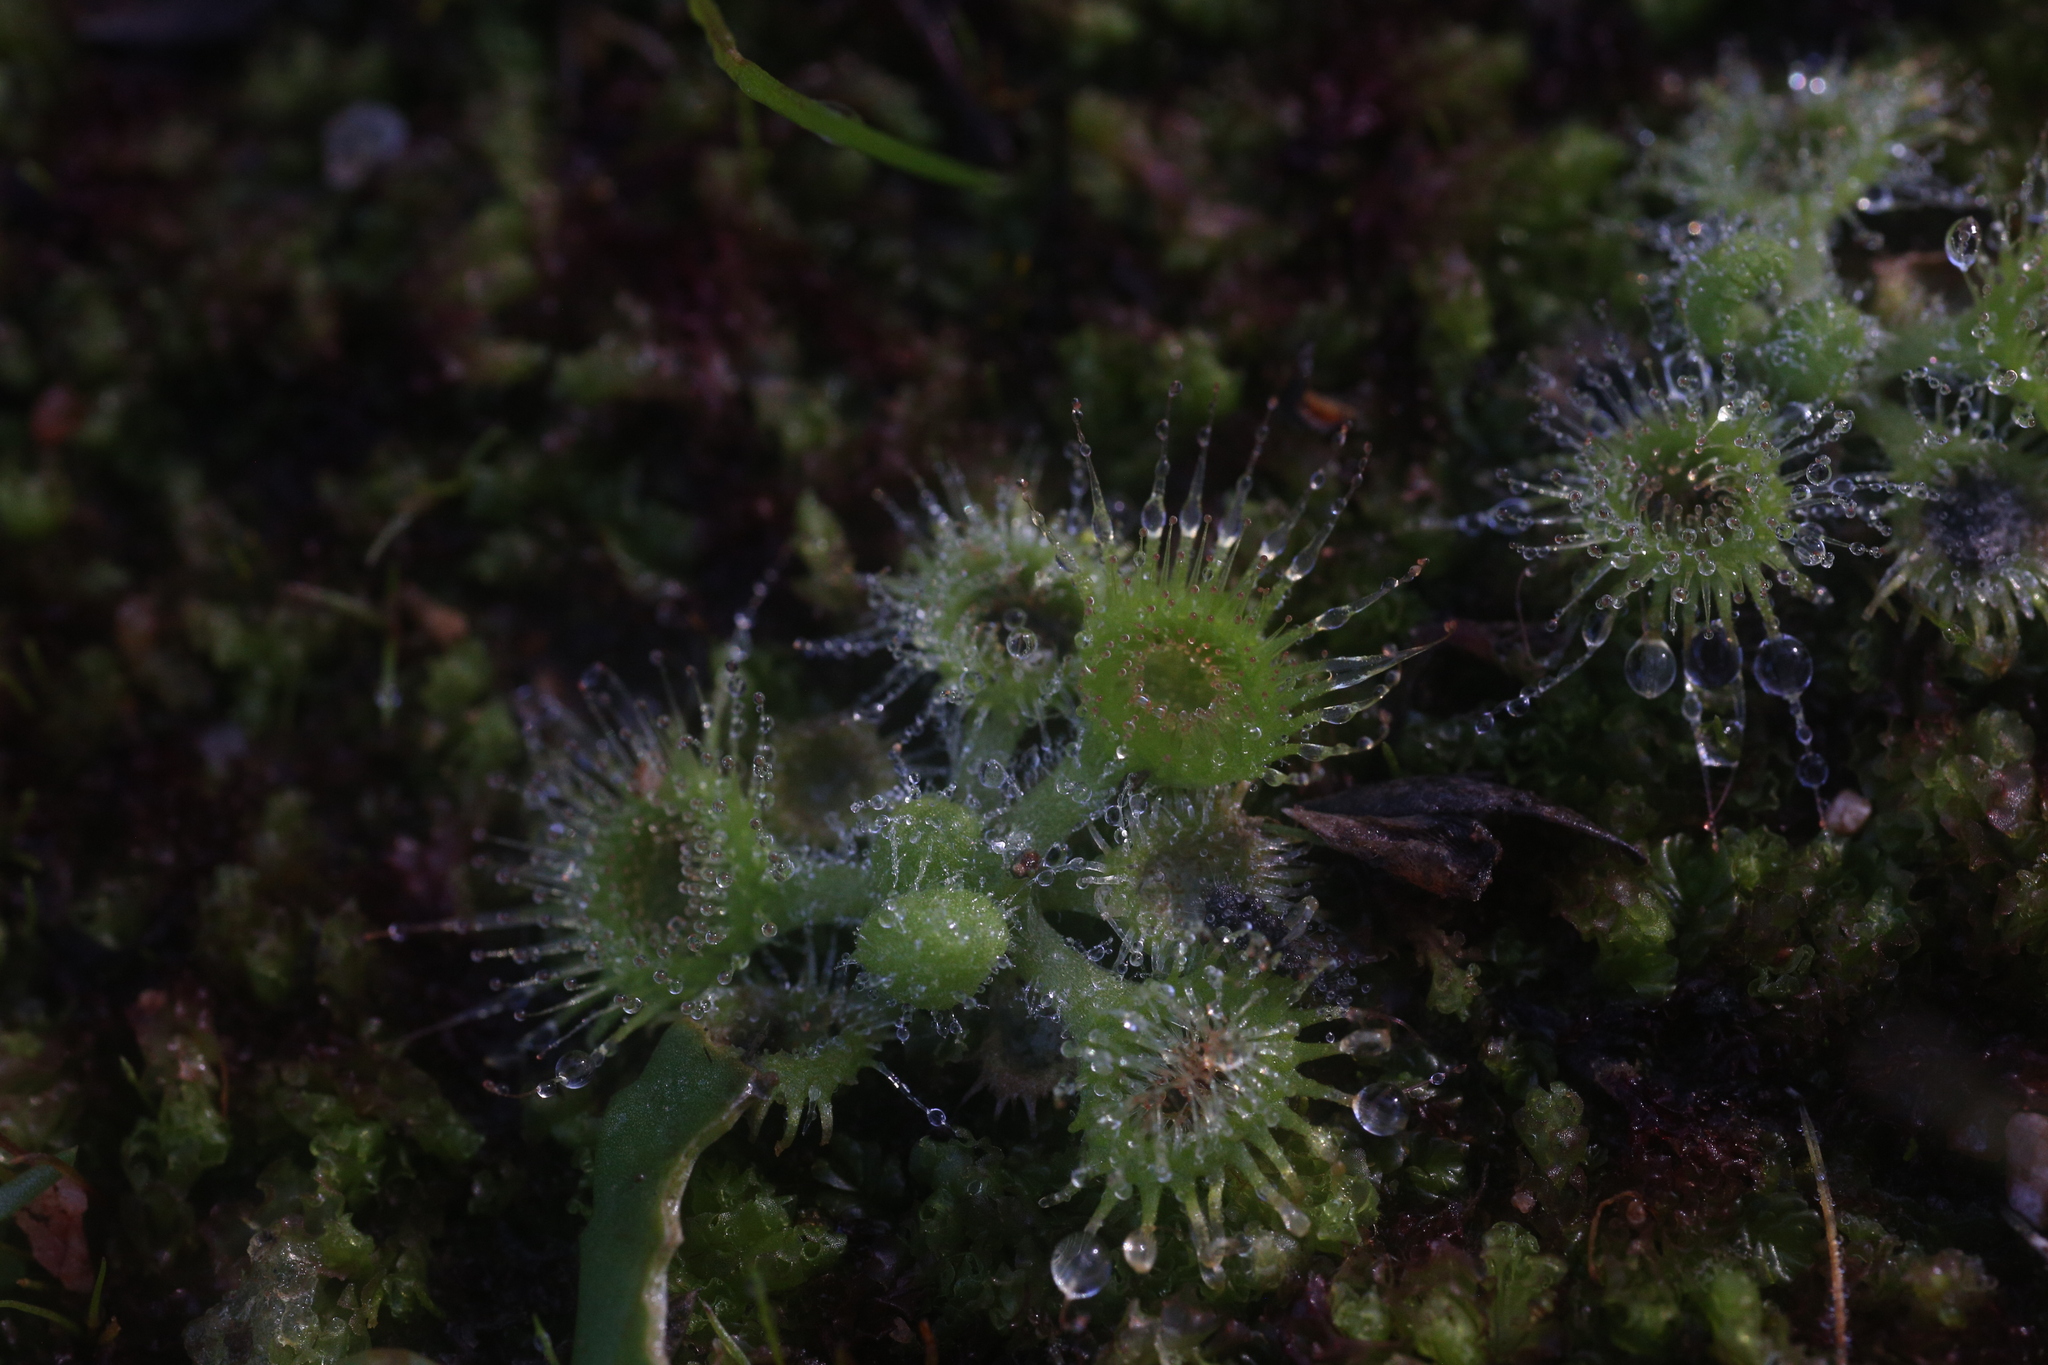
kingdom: Plantae
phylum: Tracheophyta
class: Magnoliopsida
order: Caryophyllales
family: Droseraceae
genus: Drosera
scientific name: Drosera glanduligera
